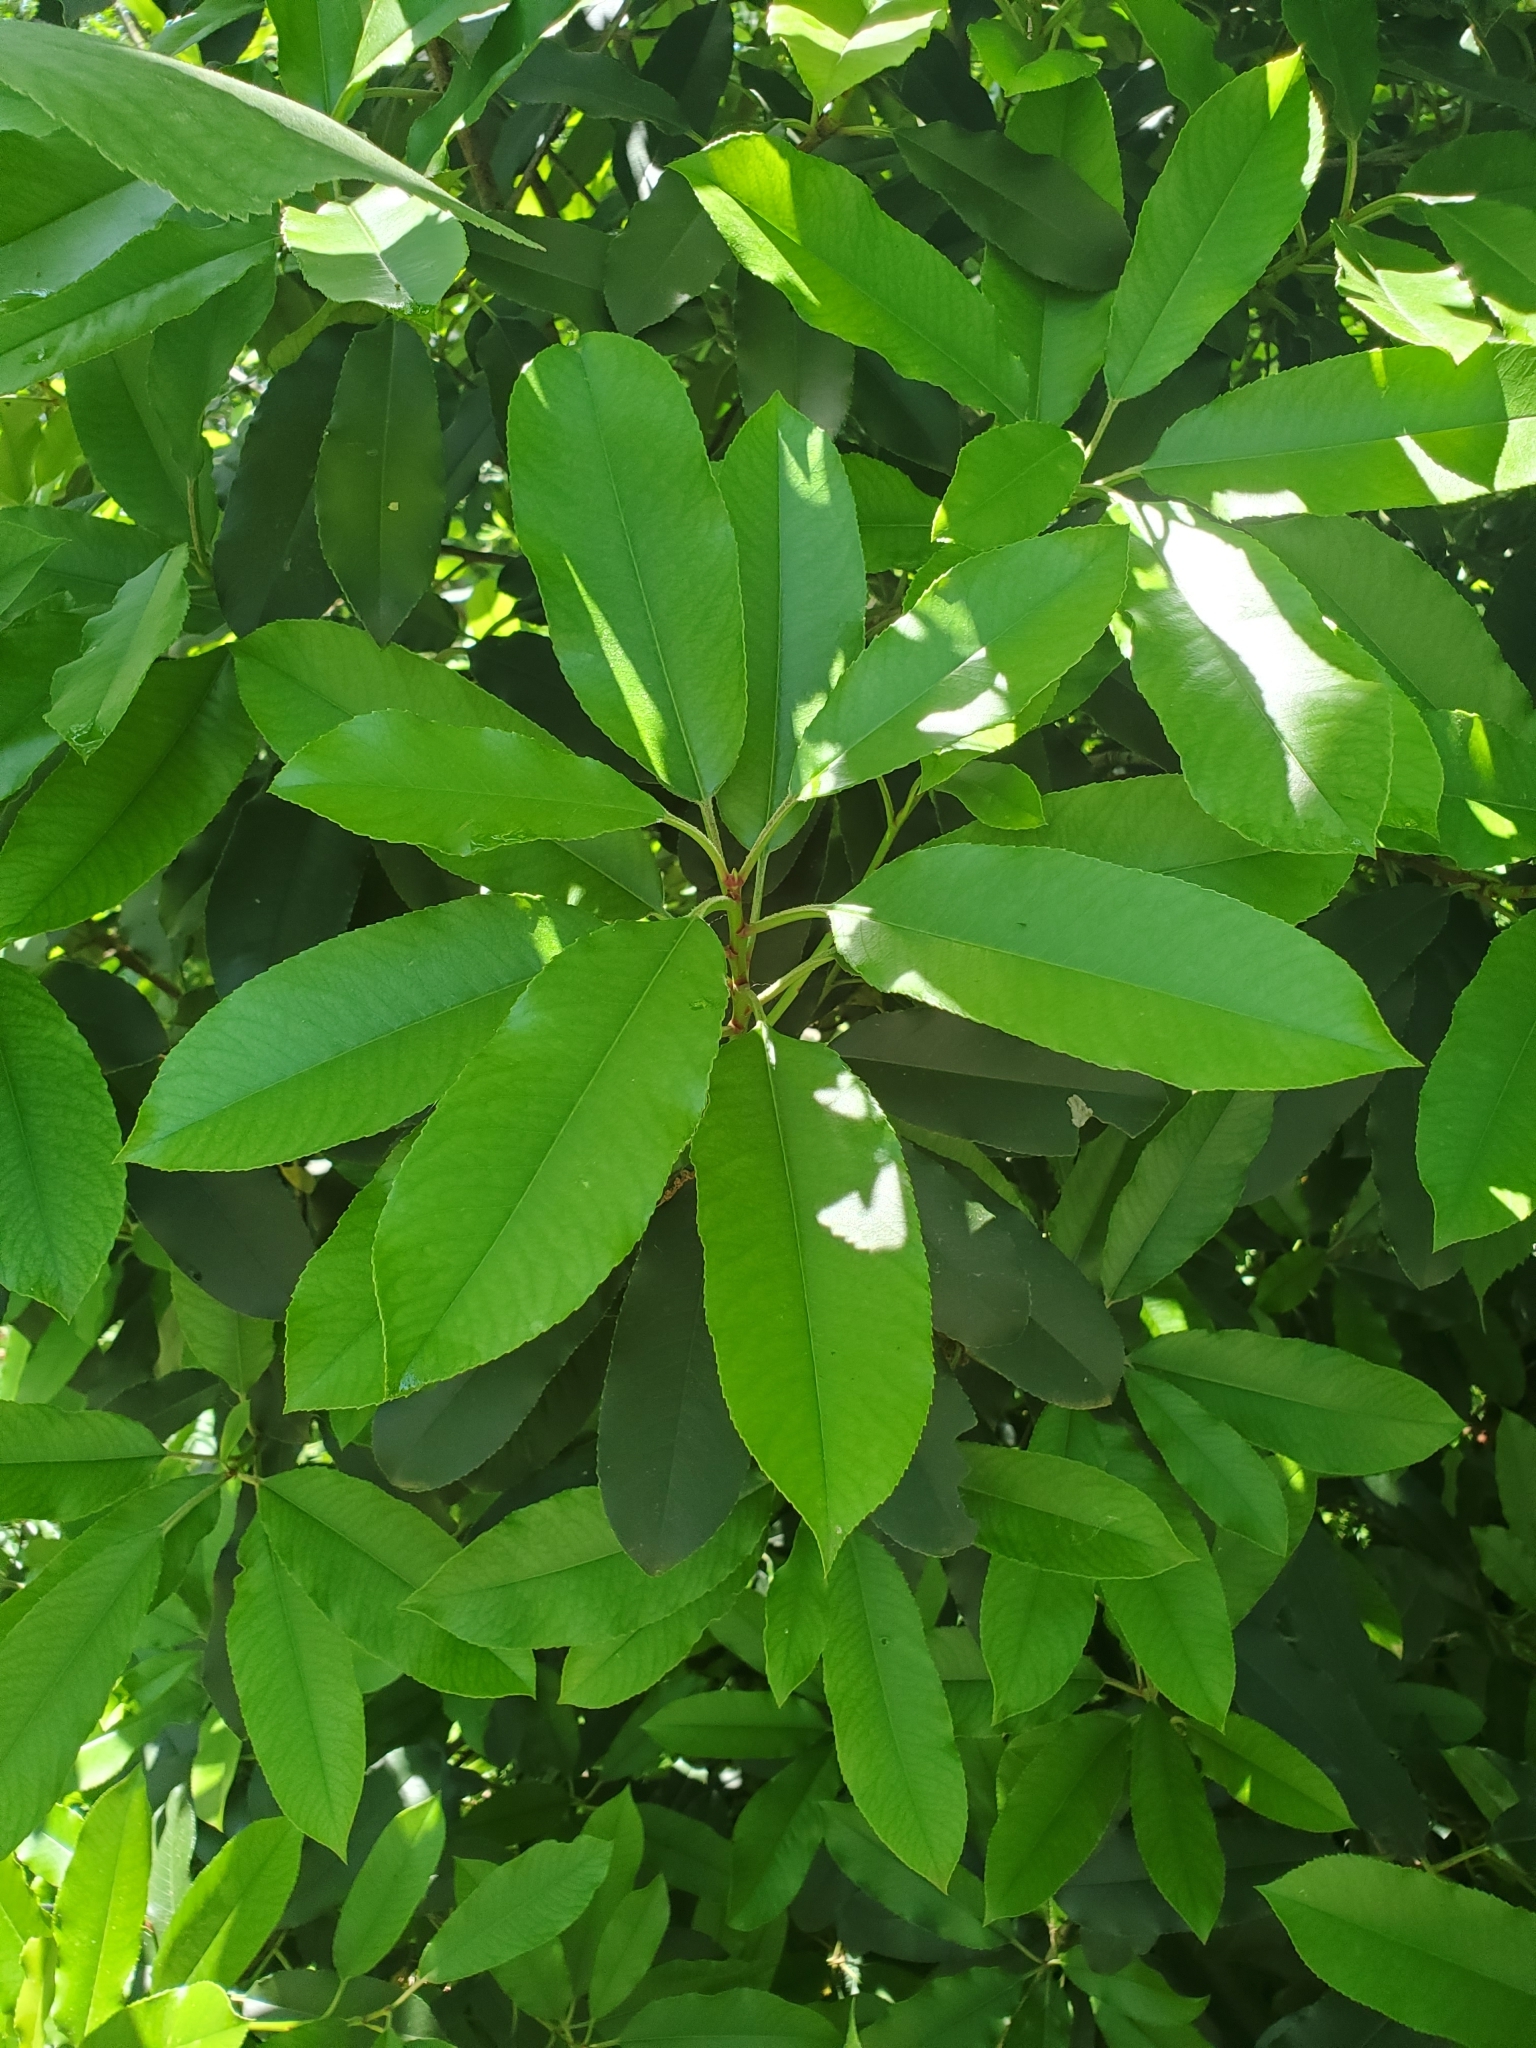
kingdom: Plantae
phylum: Tracheophyta
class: Magnoliopsida
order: Rosales
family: Rosaceae
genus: Photinia
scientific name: Photinia serratifolia
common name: Taiwanese photinia
